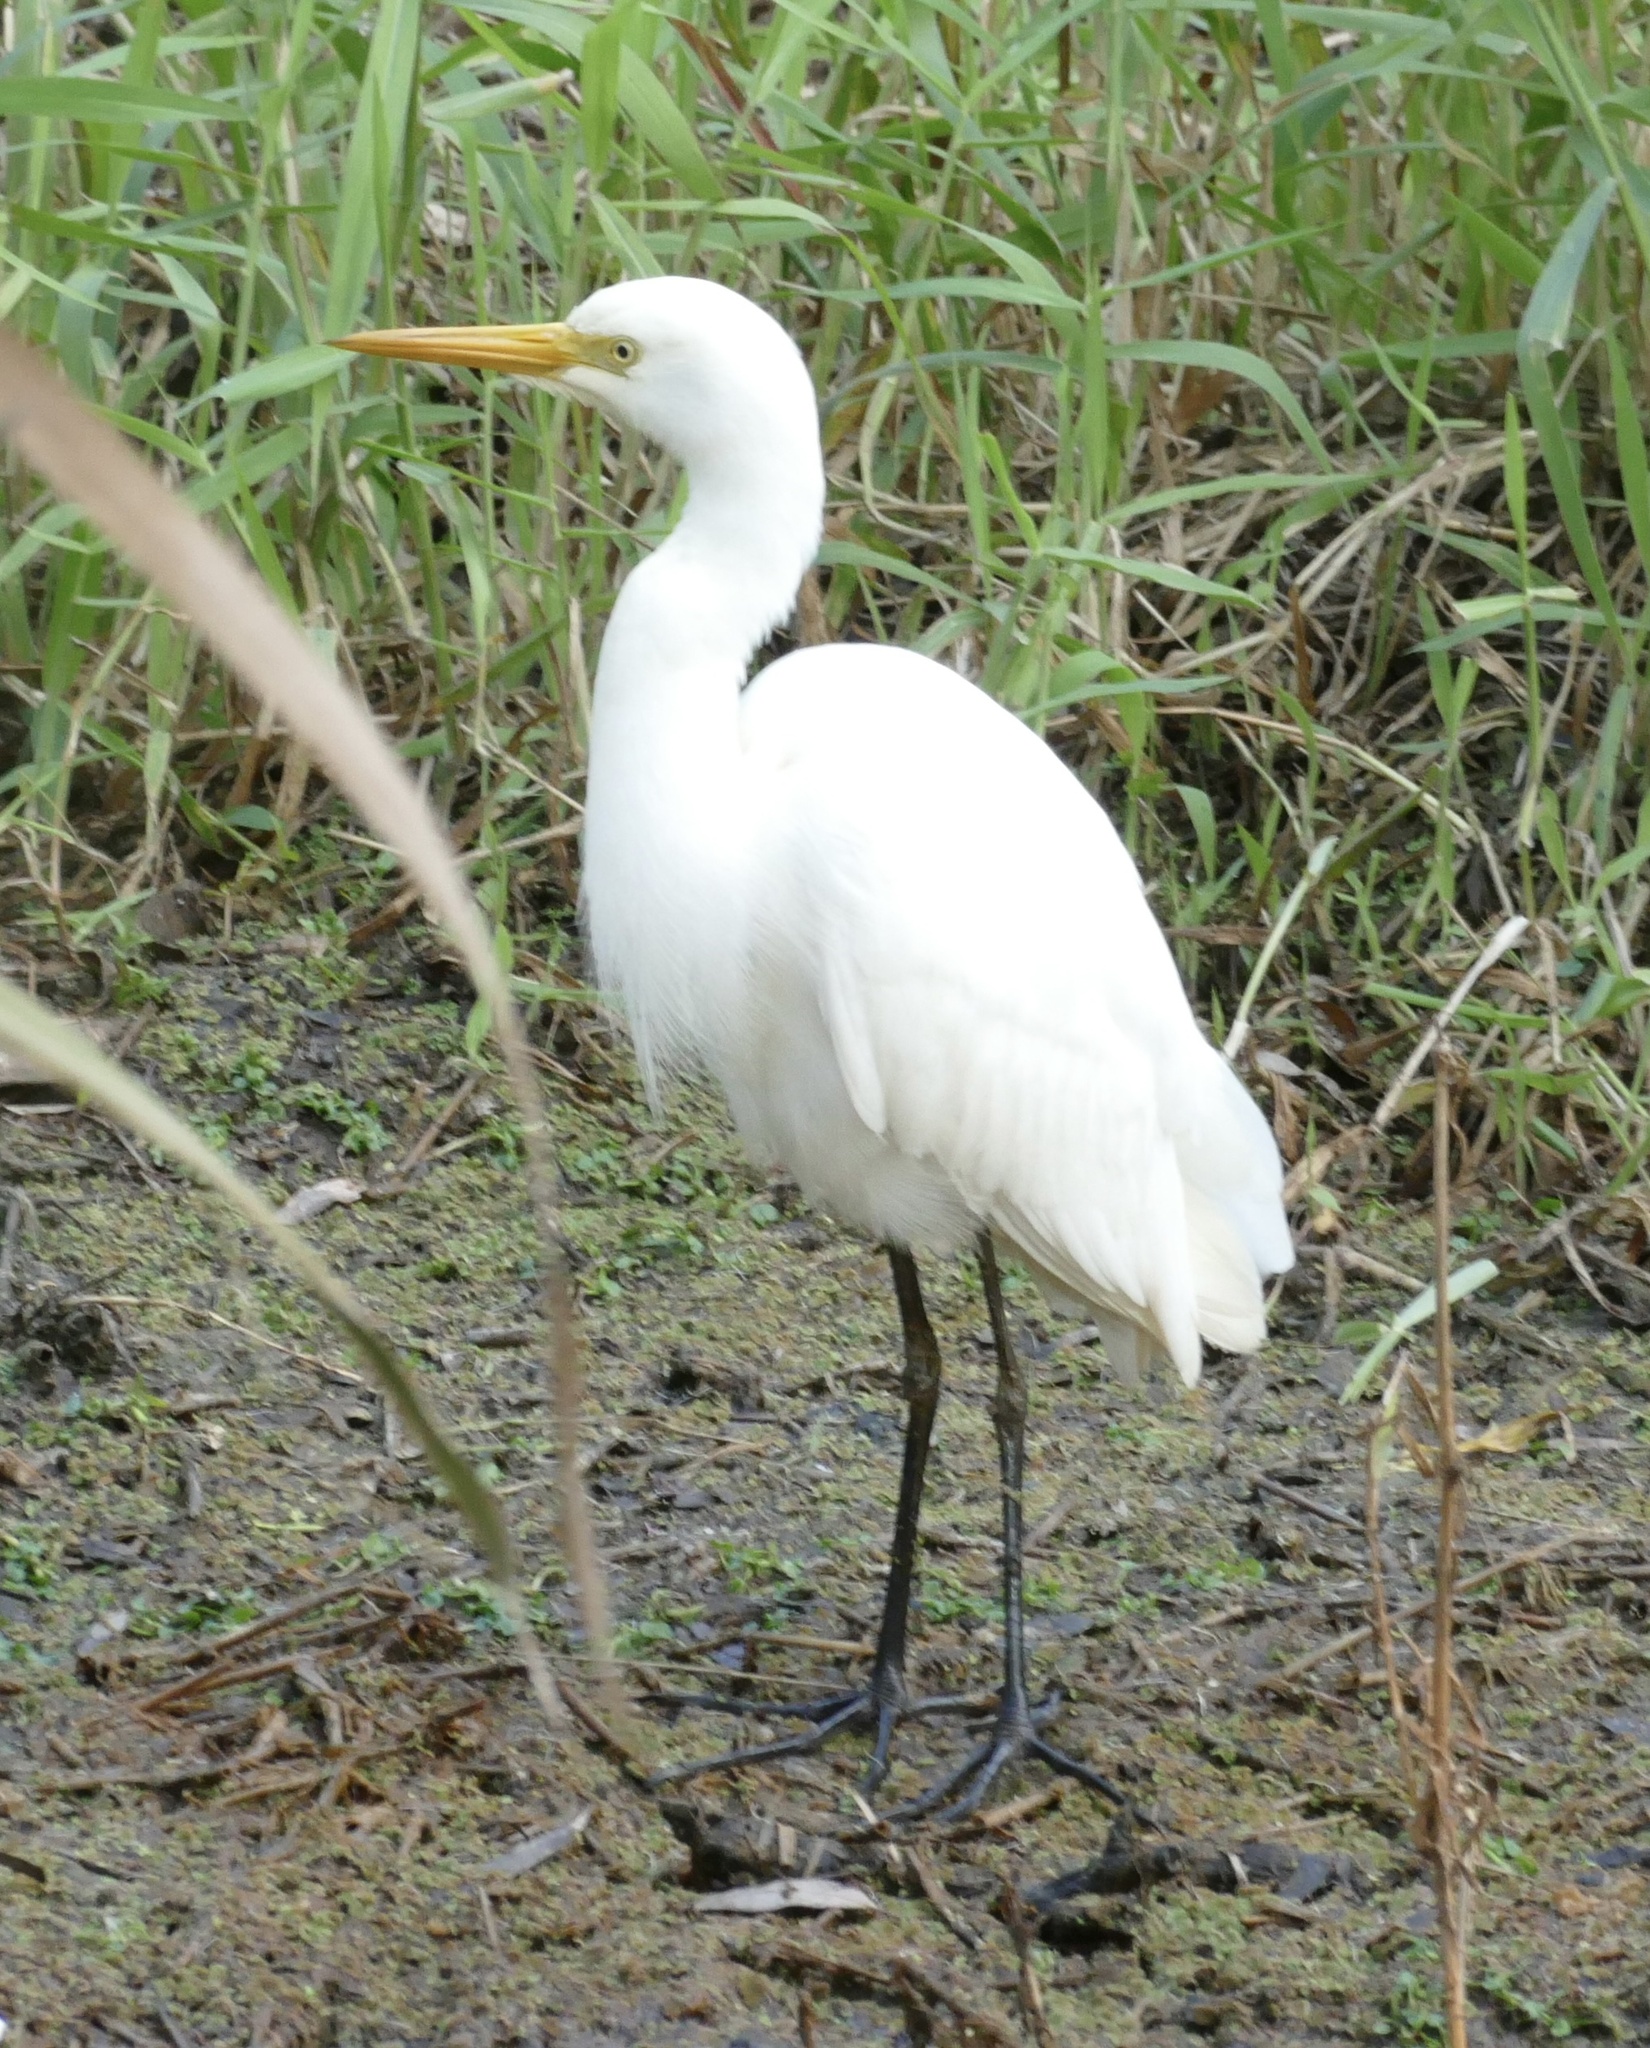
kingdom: Animalia
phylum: Chordata
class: Aves
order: Pelecaniformes
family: Ardeidae
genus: Egretta
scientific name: Egretta intermedia
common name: Intermediate egret
